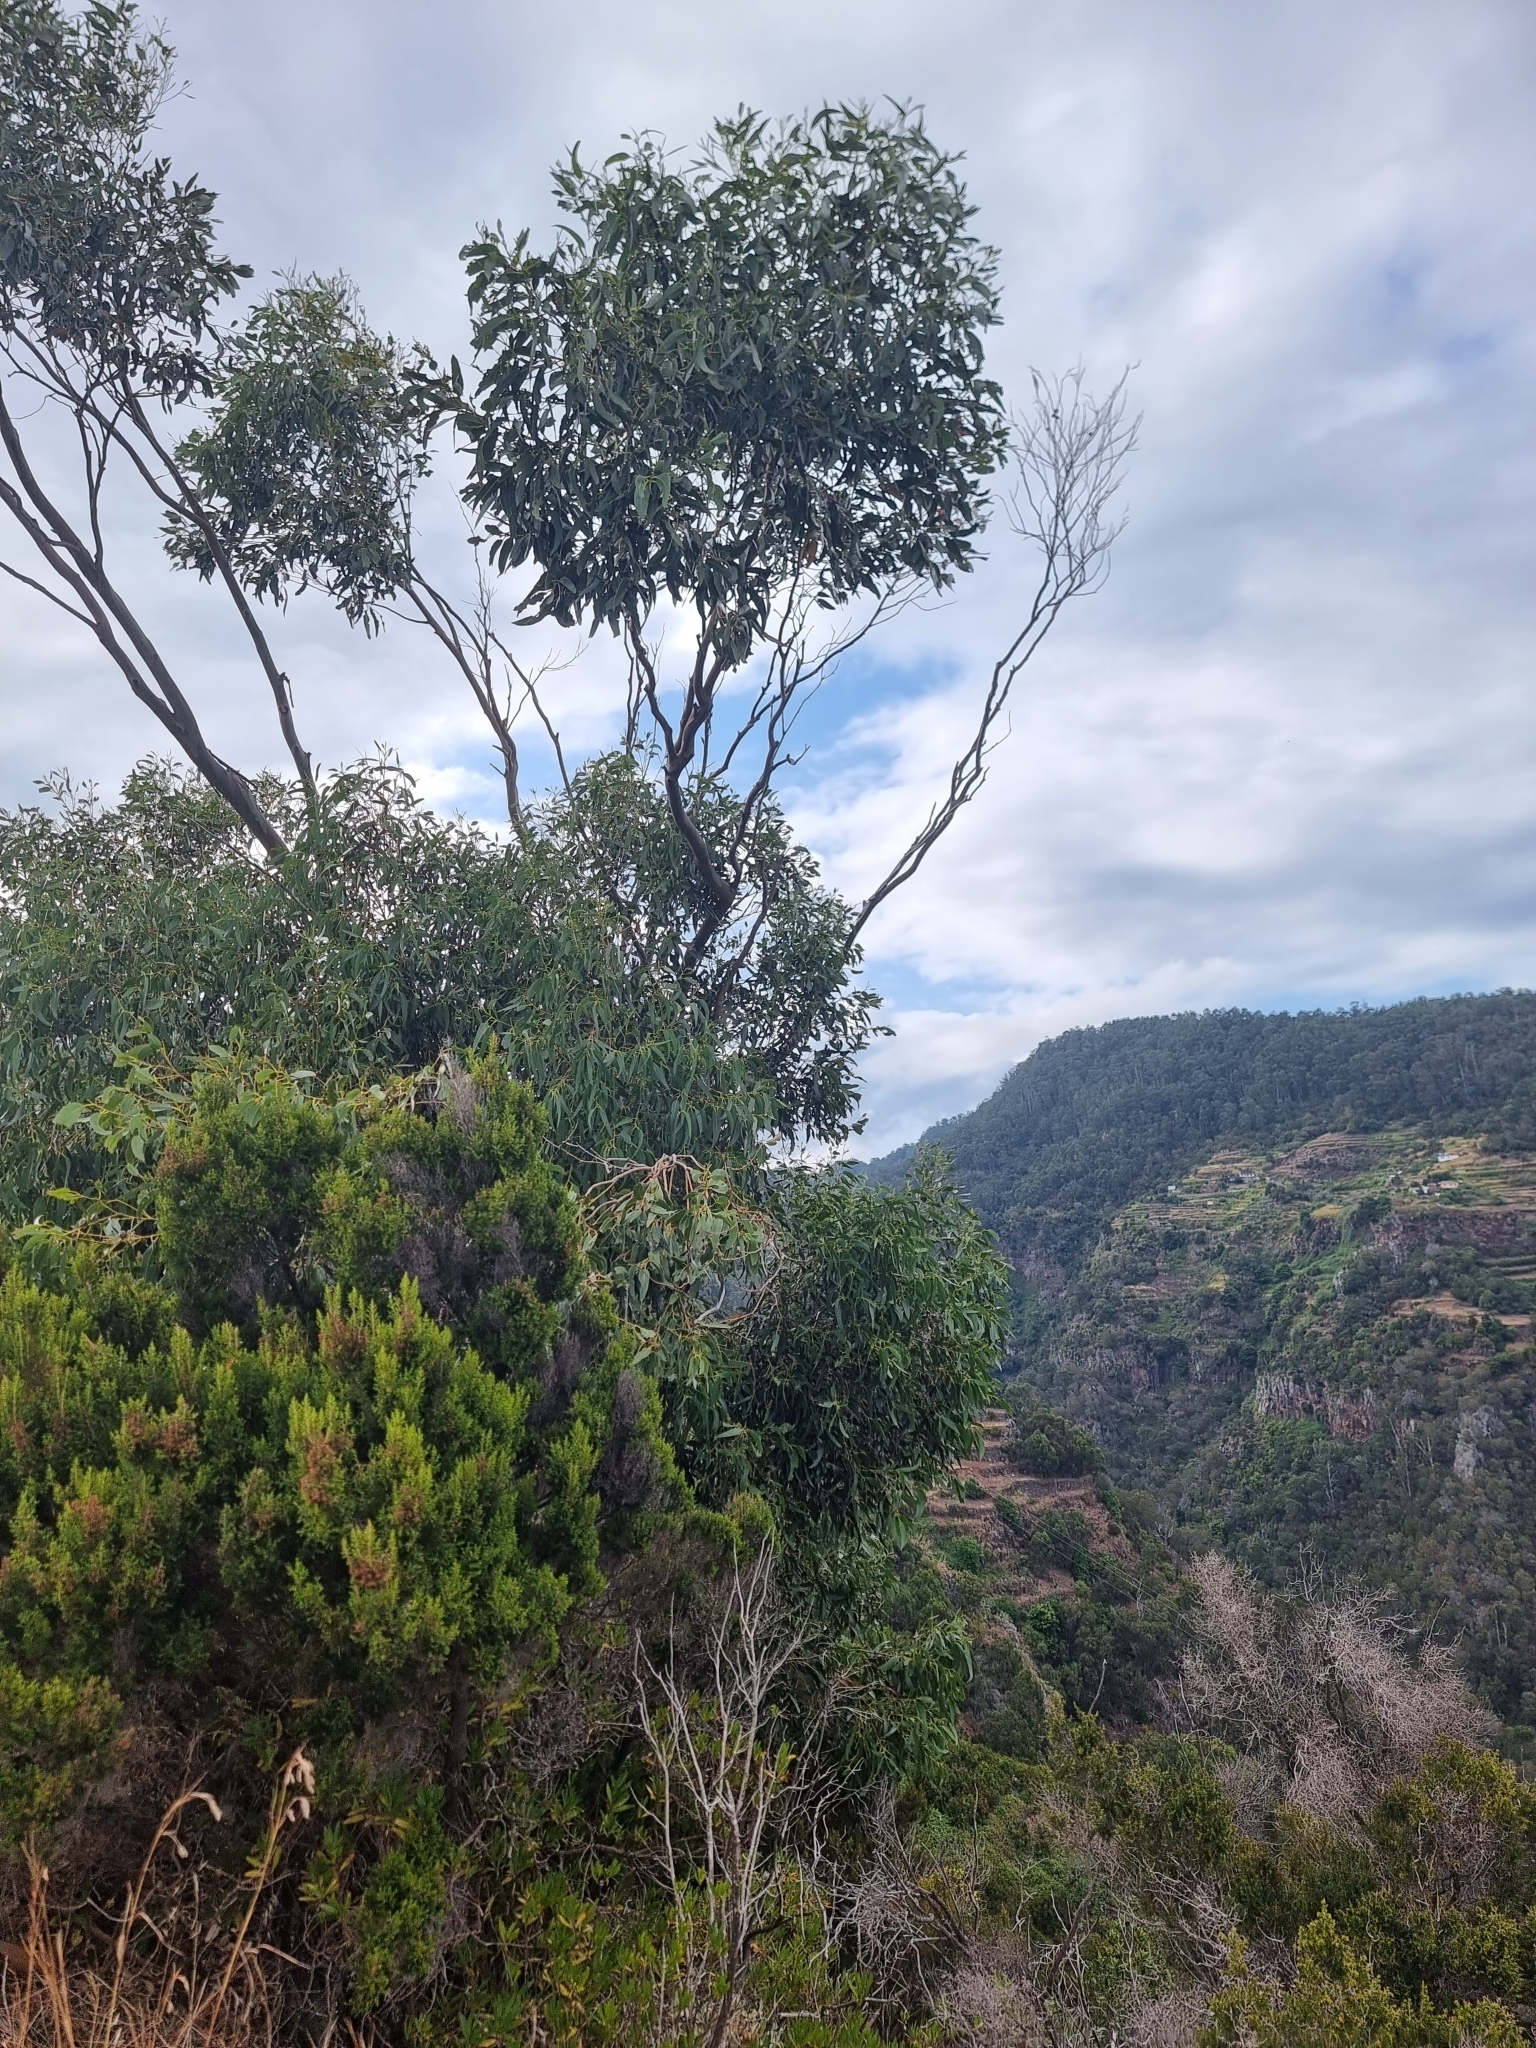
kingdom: Plantae
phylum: Tracheophyta
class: Magnoliopsida
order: Myrtales
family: Myrtaceae
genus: Eucalyptus
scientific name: Eucalyptus globulus
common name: Southern blue-gum
